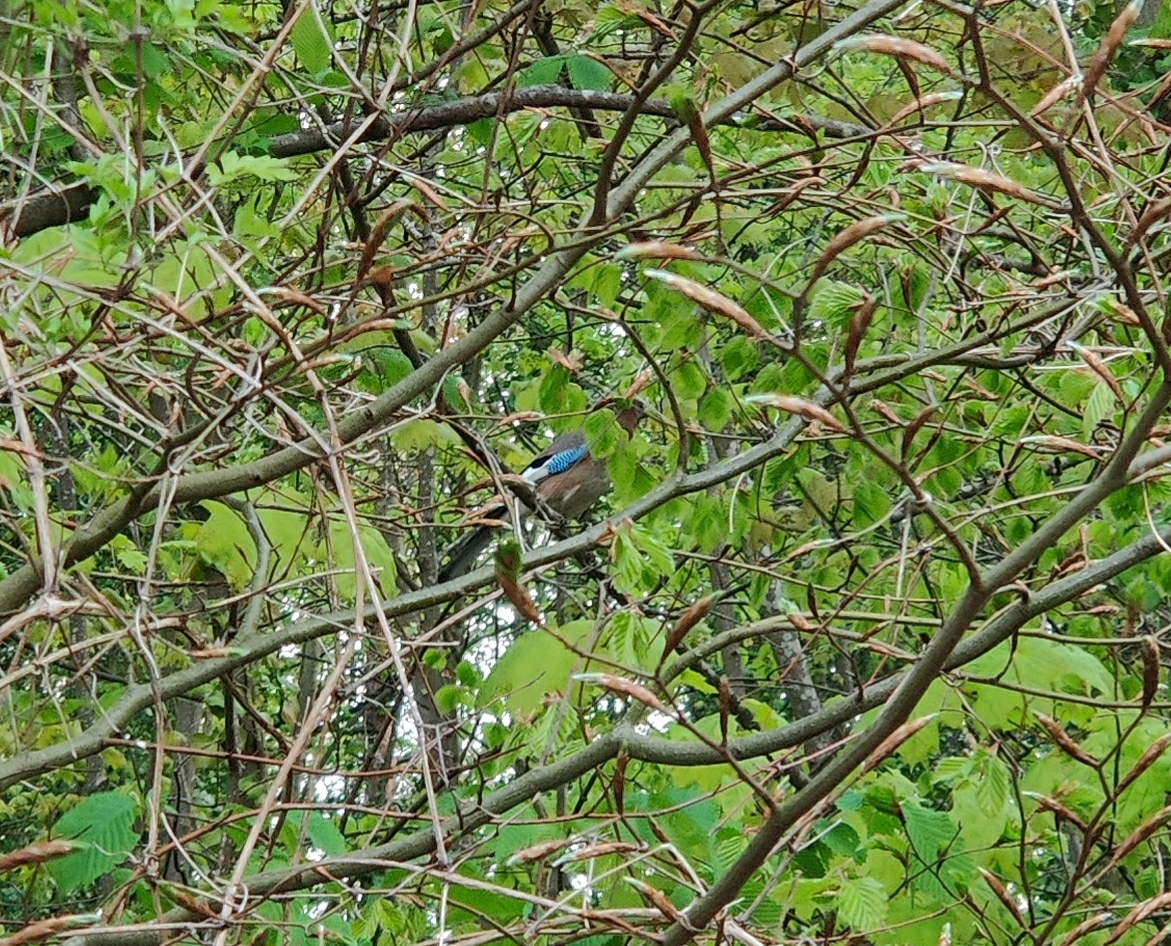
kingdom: Animalia
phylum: Chordata
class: Aves
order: Passeriformes
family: Corvidae
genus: Garrulus
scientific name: Garrulus glandarius
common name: Eurasian jay
